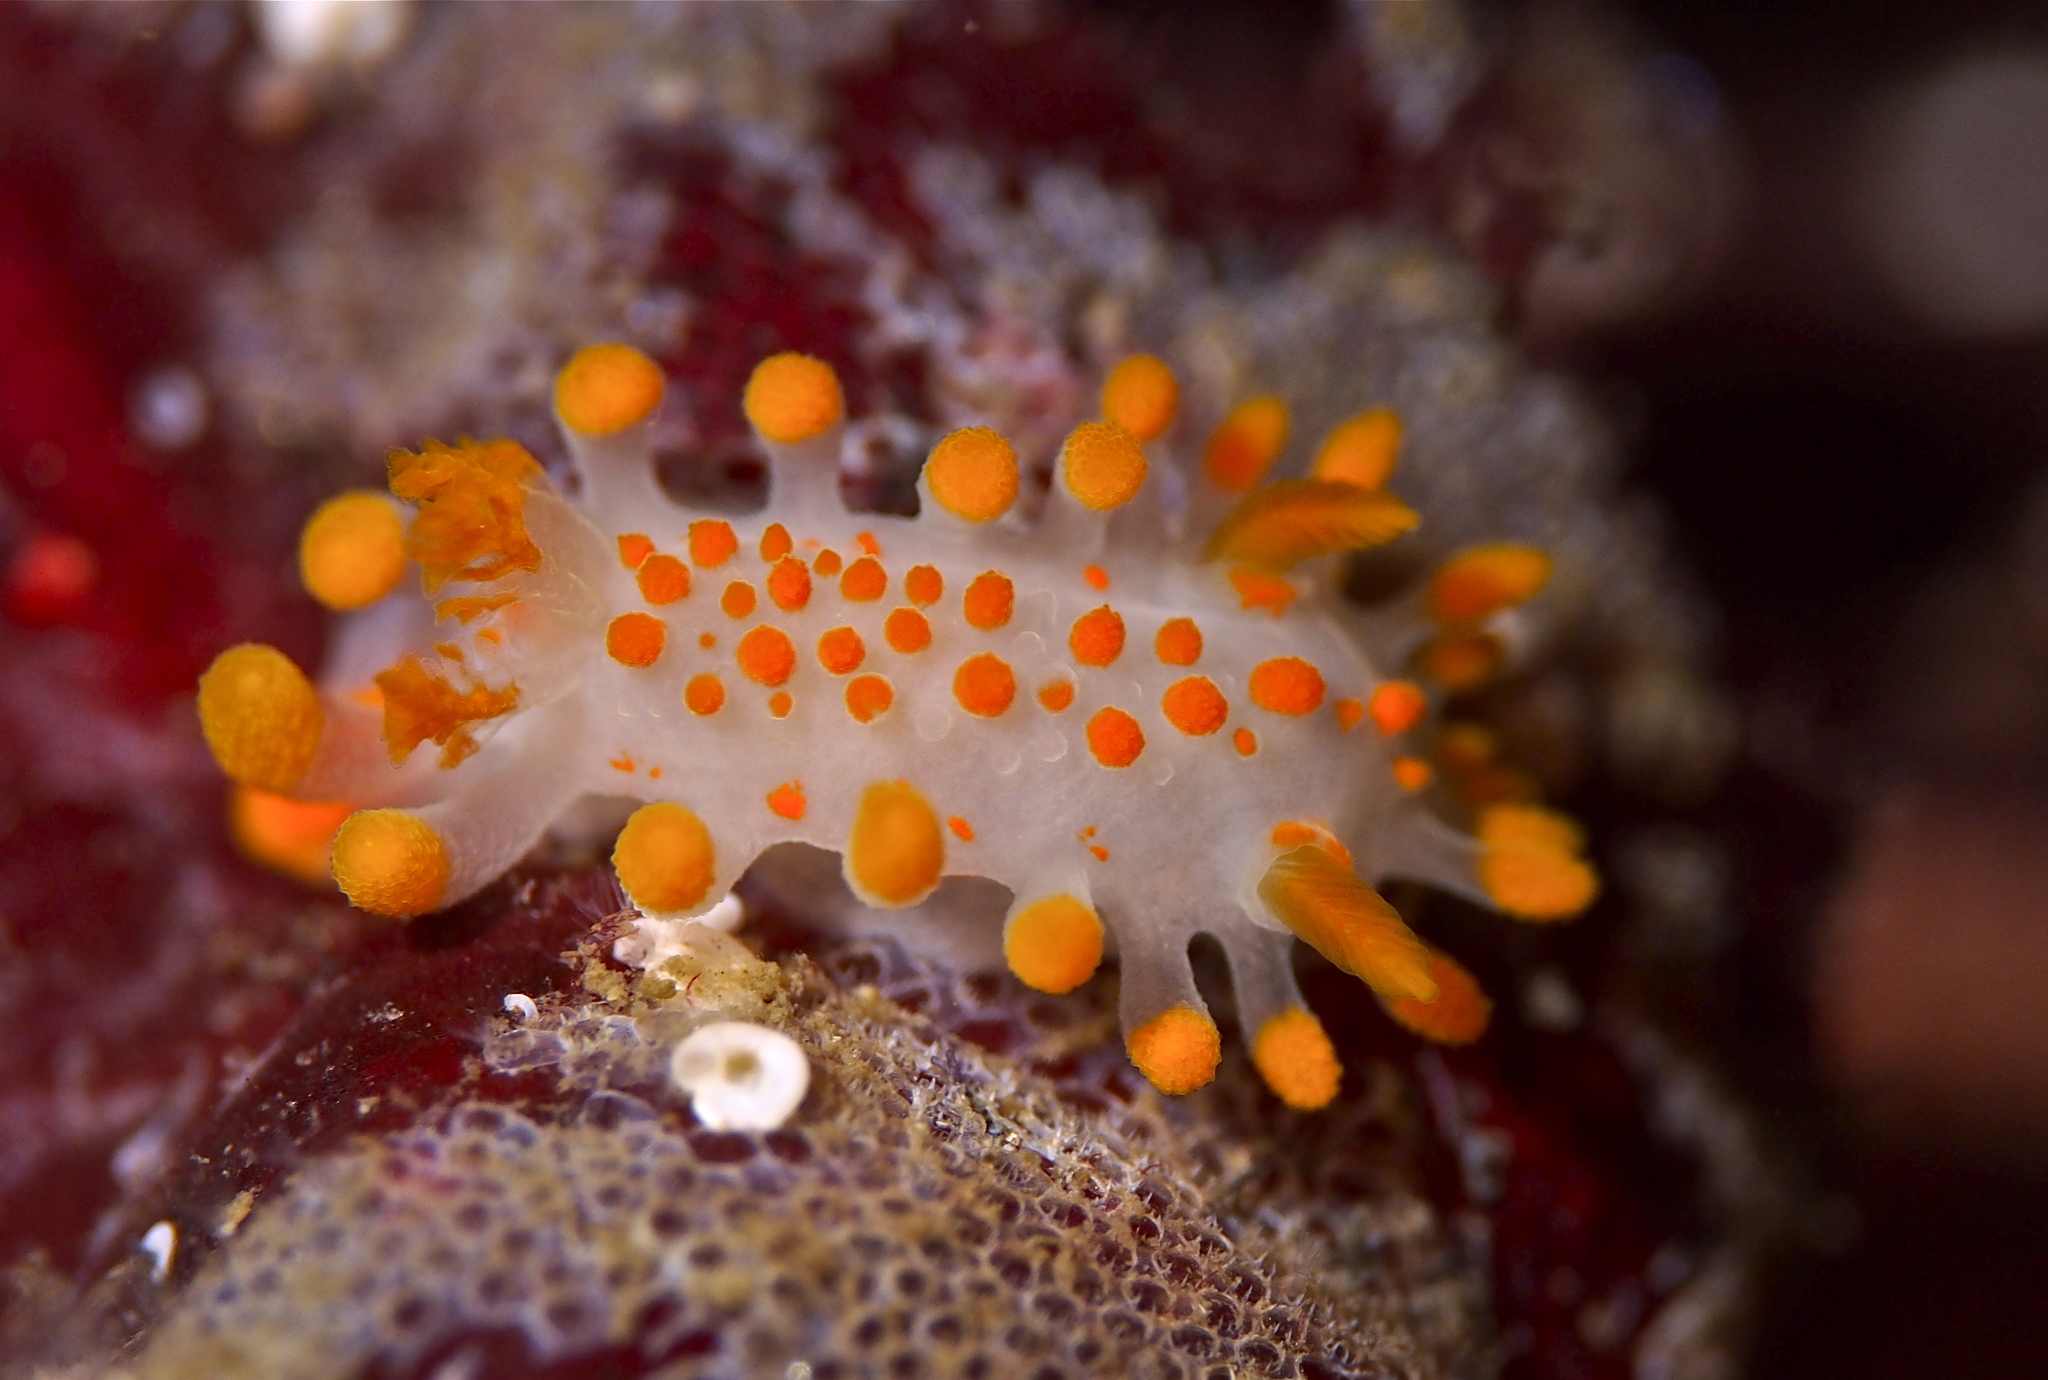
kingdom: Animalia
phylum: Mollusca
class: Gastropoda
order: Nudibranchia
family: Polyceridae
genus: Limacia
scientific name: Limacia clavigera
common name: Orange-clubbed sea slug
